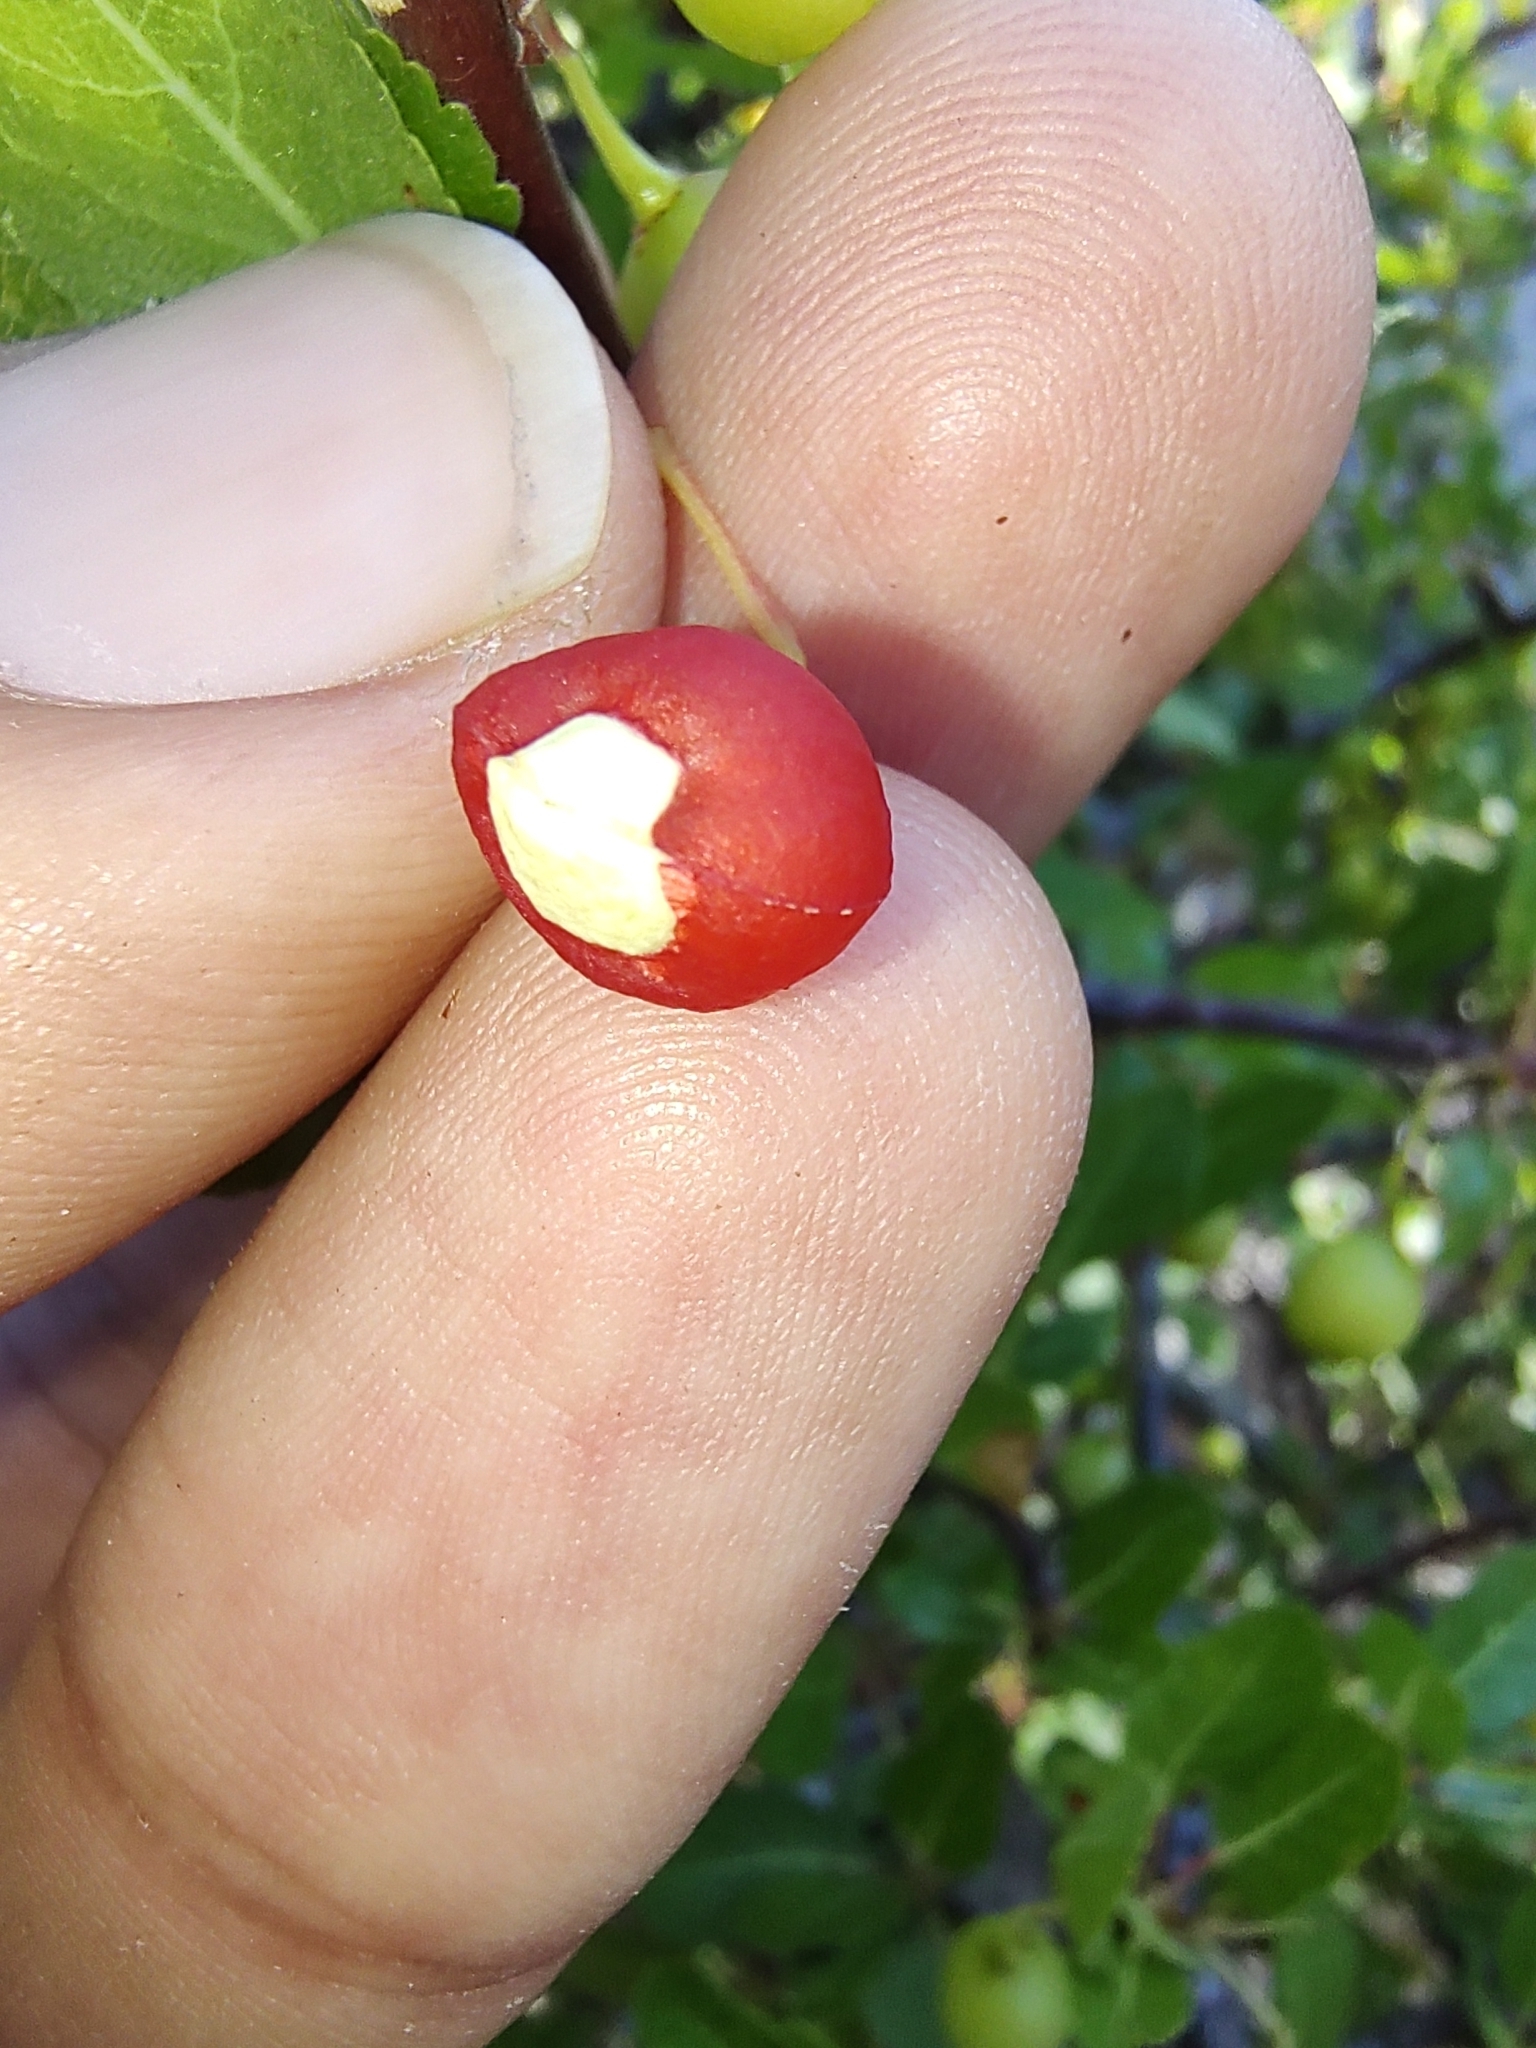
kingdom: Plantae
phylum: Tracheophyta
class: Magnoliopsida
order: Sapindales
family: Burseraceae
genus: Bursera
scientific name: Bursera rupicola
